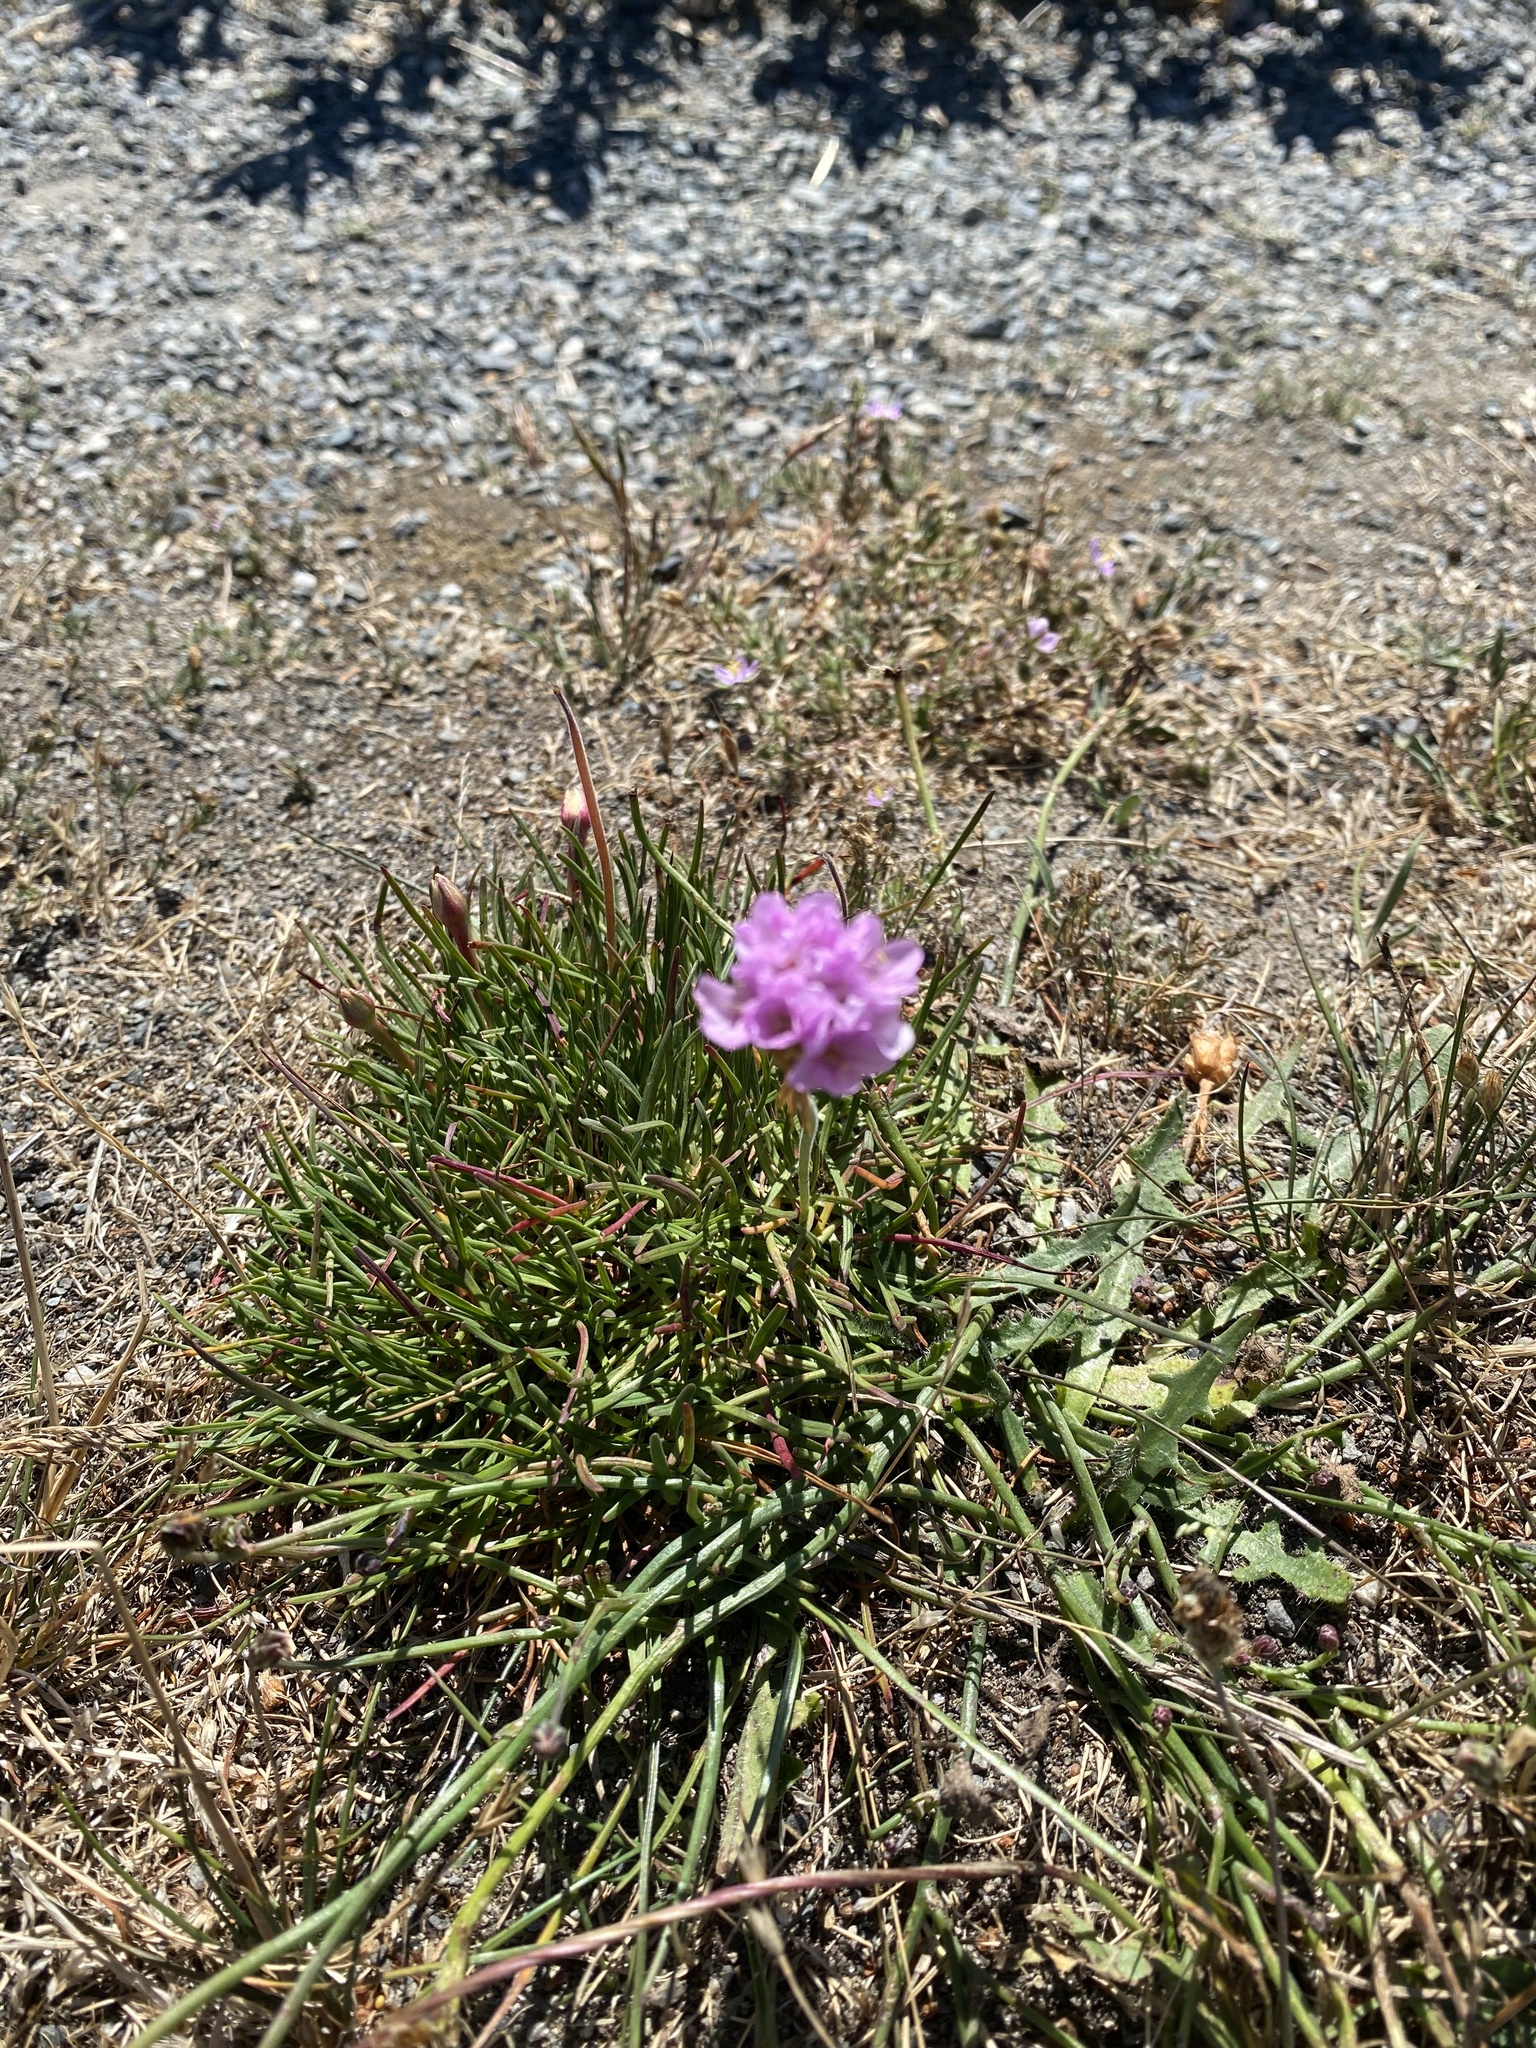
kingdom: Plantae
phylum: Tracheophyta
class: Magnoliopsida
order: Caryophyllales
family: Plumbaginaceae
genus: Armeria
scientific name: Armeria maritima
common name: Thrift
